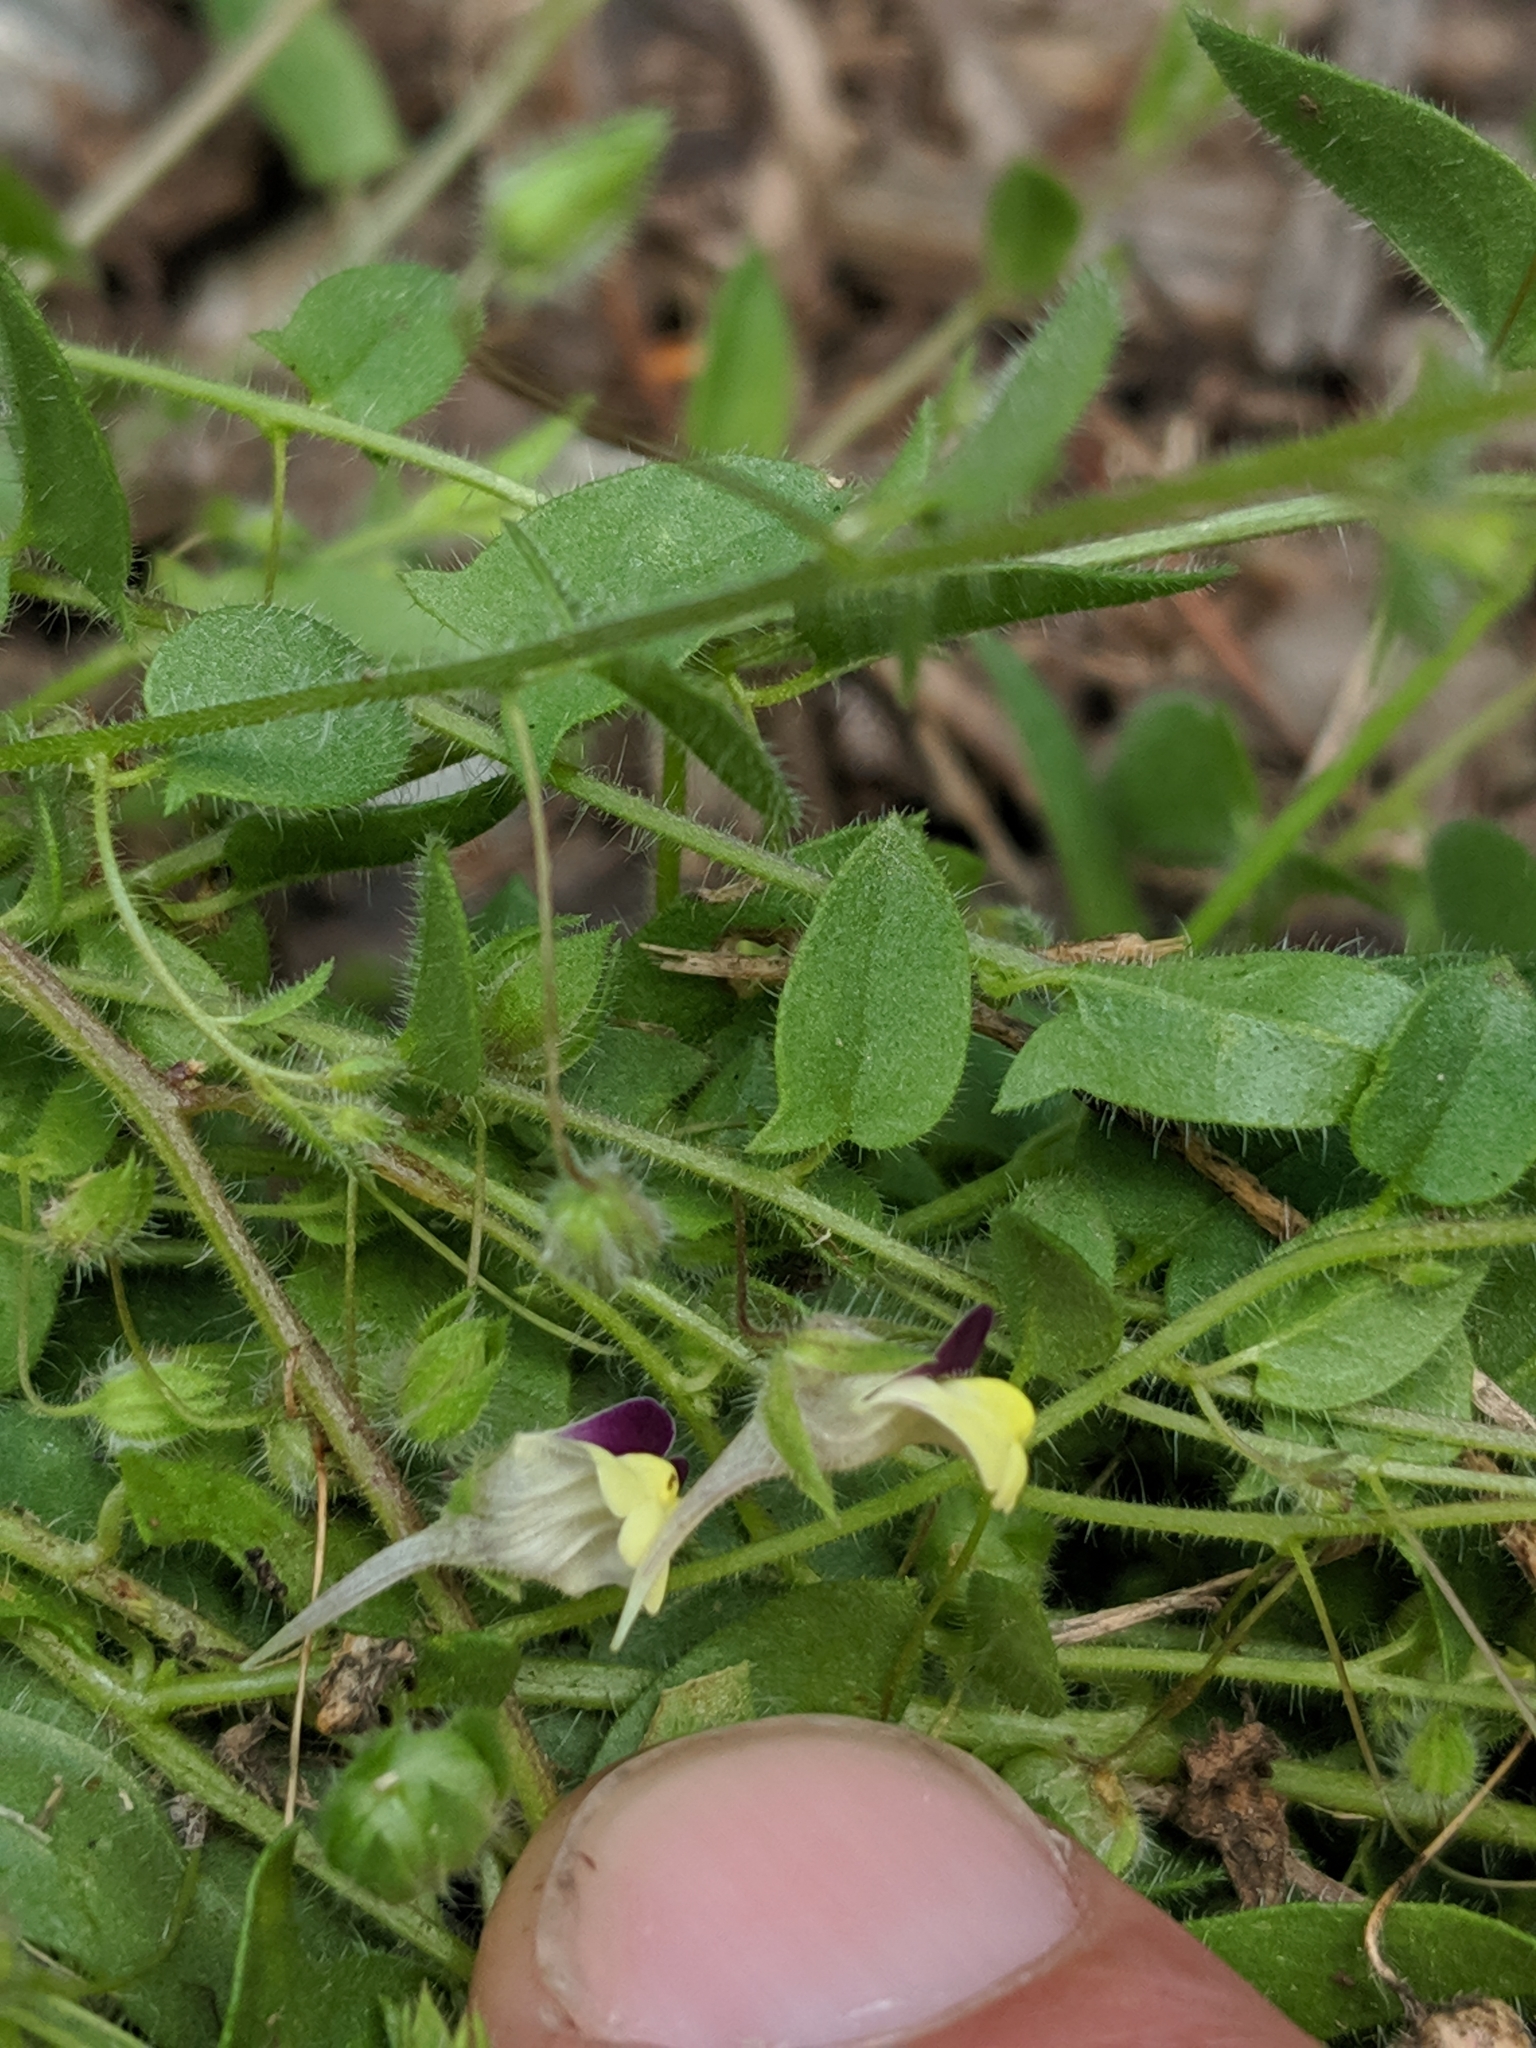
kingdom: Plantae
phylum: Tracheophyta
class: Magnoliopsida
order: Lamiales
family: Plantaginaceae
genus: Kickxia
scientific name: Kickxia elatine
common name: Sharp-leaved fluellen
